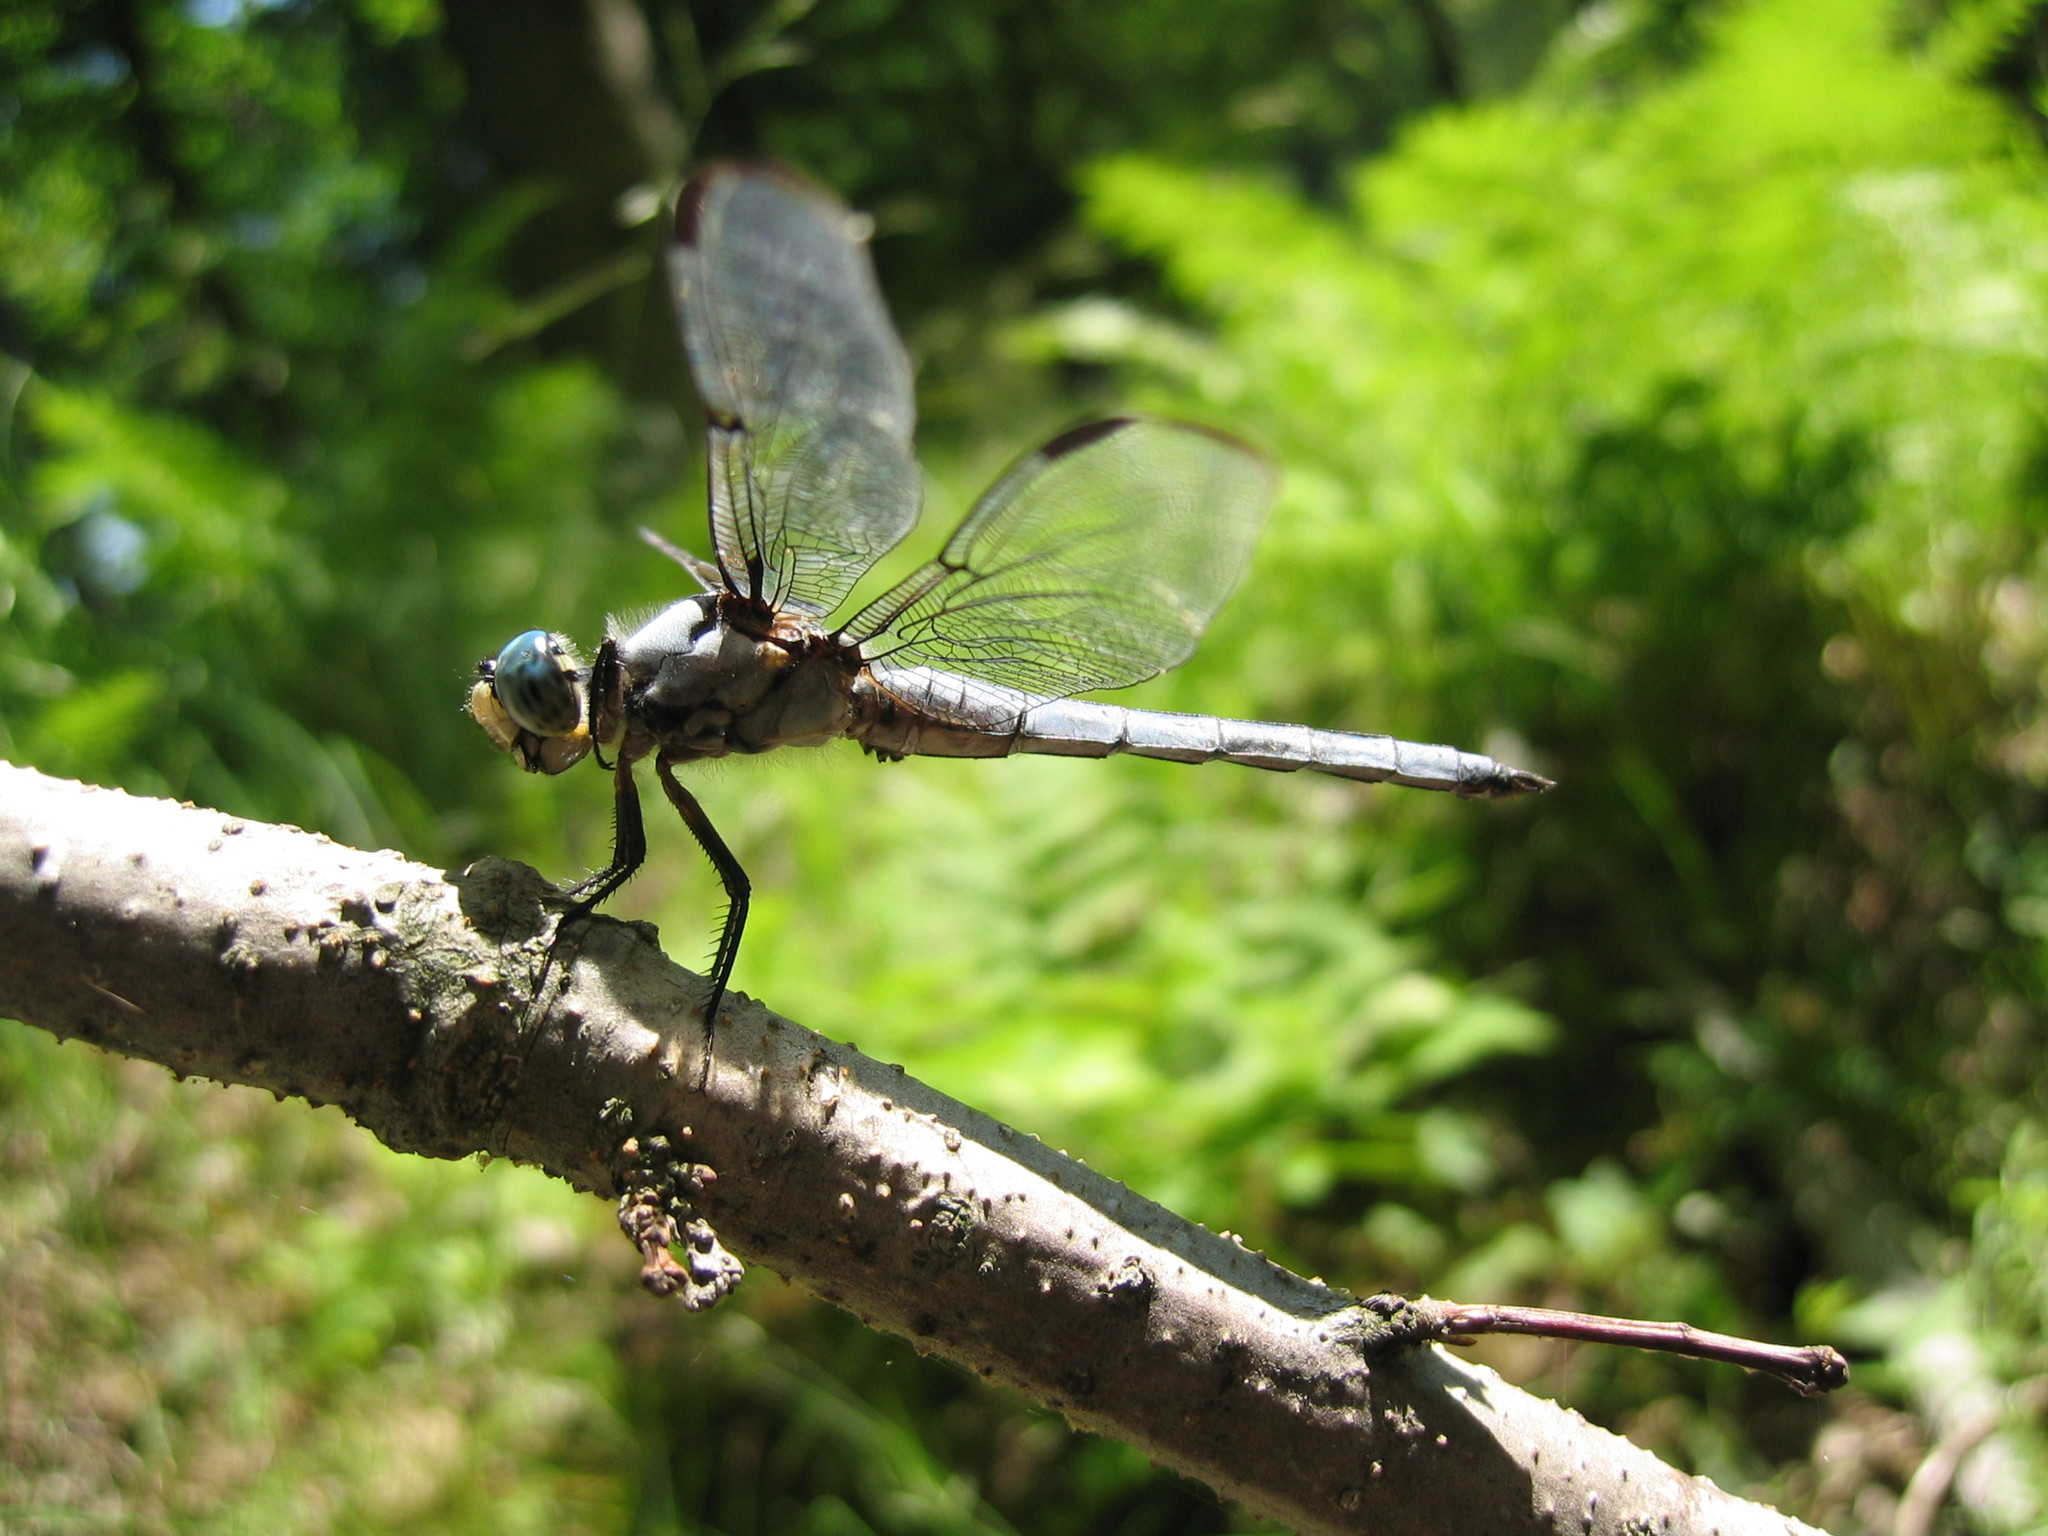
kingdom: Animalia
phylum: Arthropoda
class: Insecta
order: Odonata
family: Libellulidae
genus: Libellula
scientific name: Libellula vibrans
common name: Great blue skimmer
